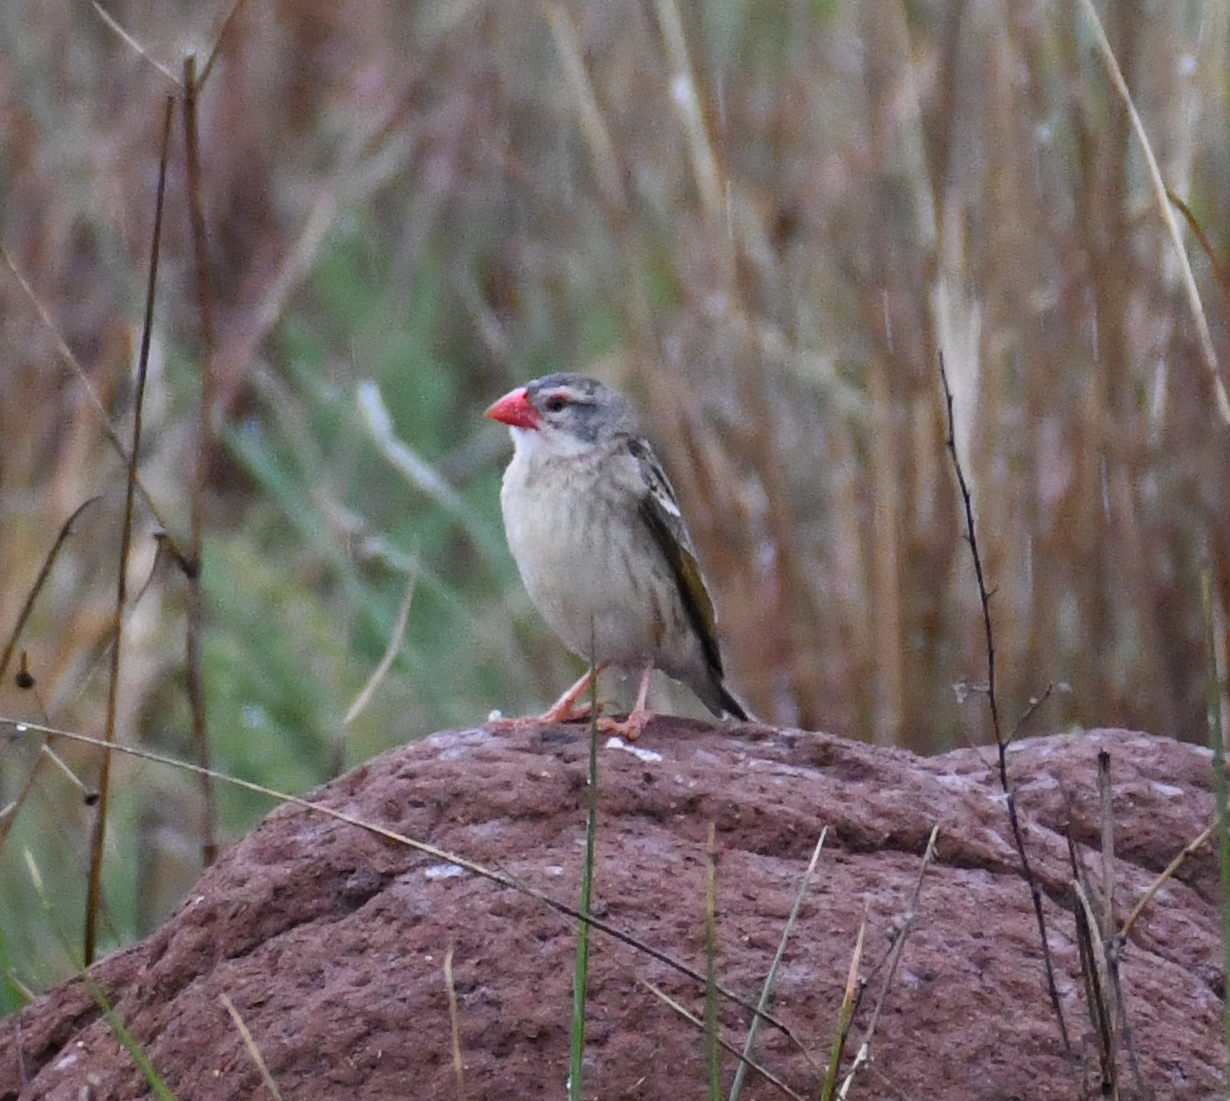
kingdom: Animalia
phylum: Chordata
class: Aves
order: Passeriformes
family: Ploceidae
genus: Quelea
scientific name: Quelea quelea
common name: Red-billed quelea
